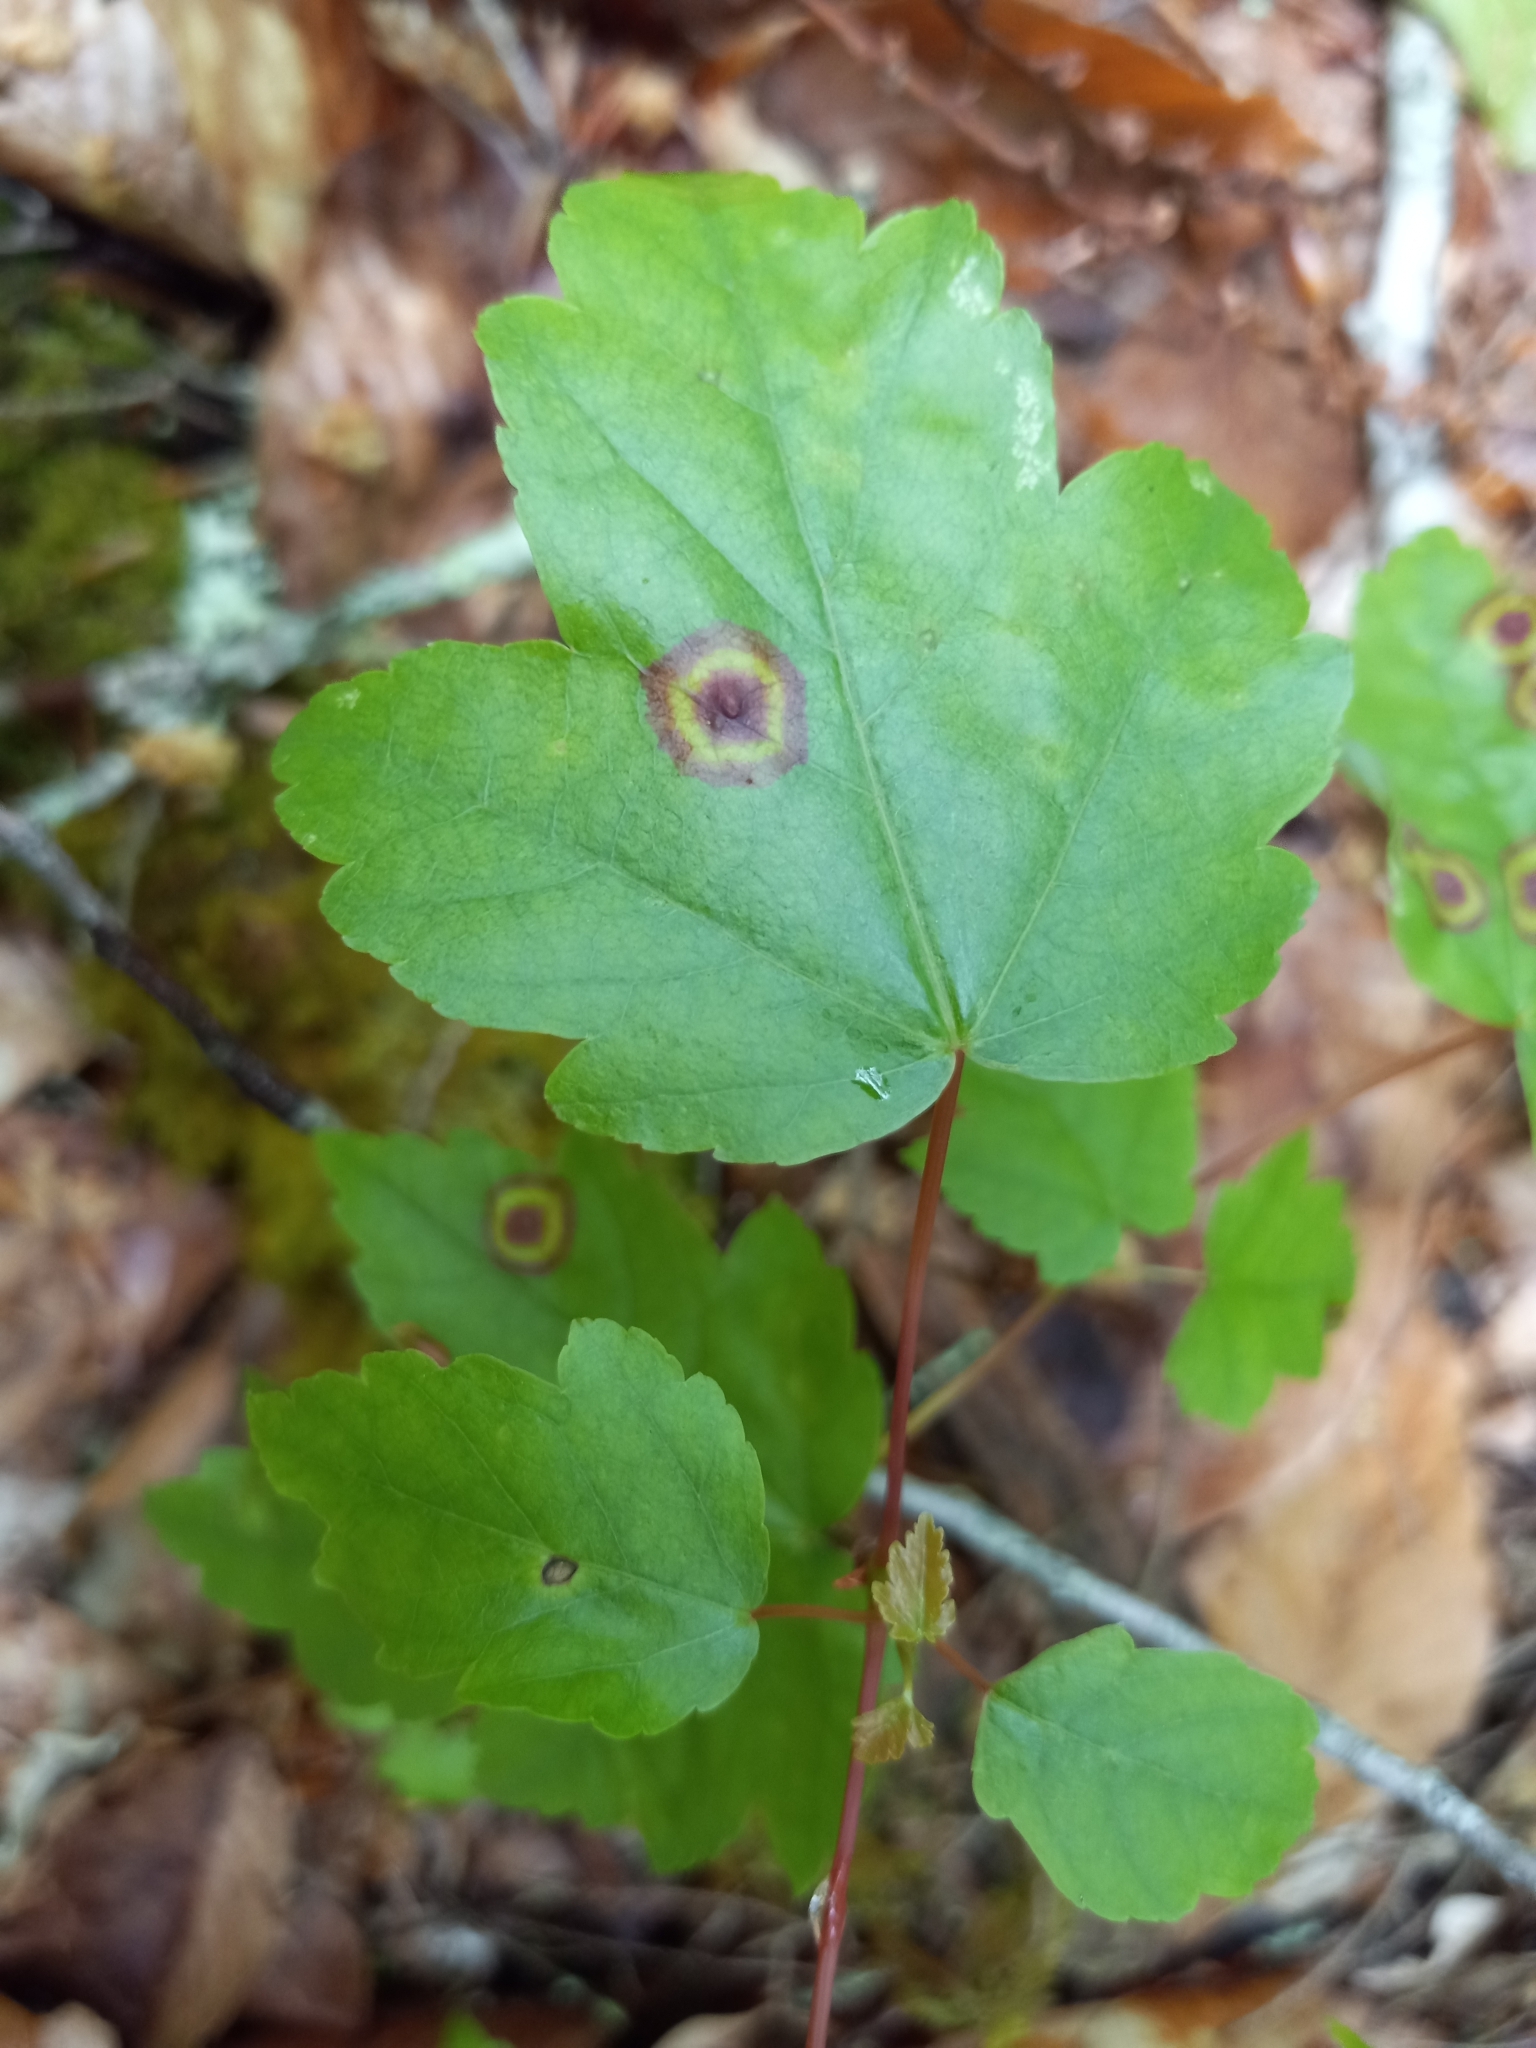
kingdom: Animalia
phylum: Arthropoda
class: Insecta
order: Diptera
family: Cecidomyiidae
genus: Acericecis
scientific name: Acericecis ocellaris
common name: Ocellate gall midge
